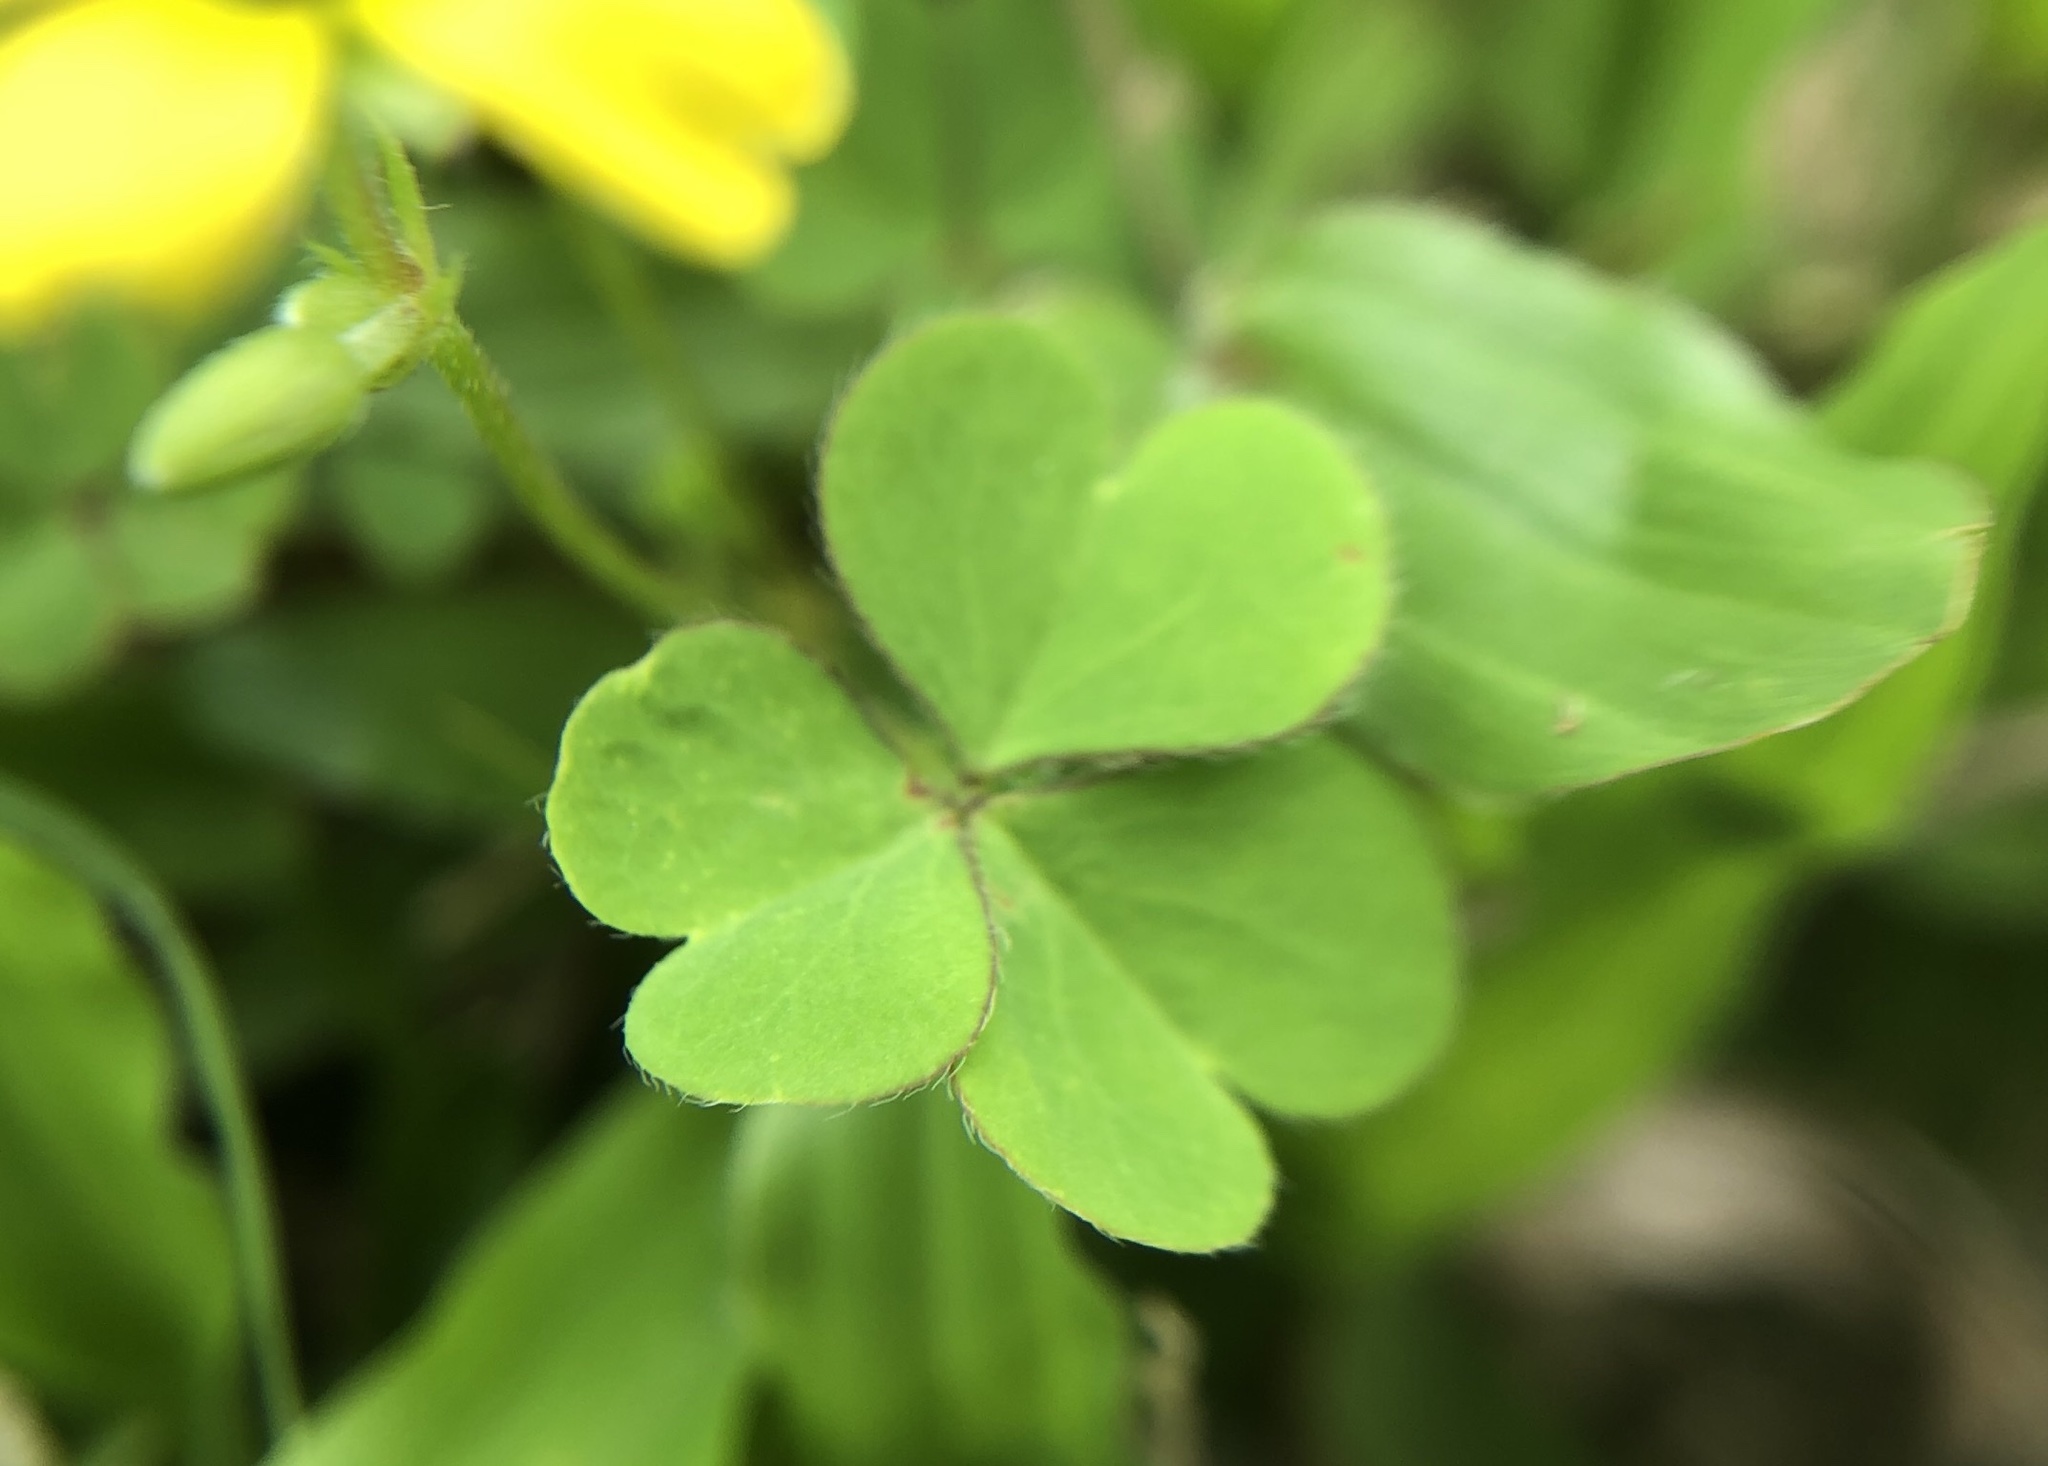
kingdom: Plantae
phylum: Tracheophyta
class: Magnoliopsida
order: Oxalidales
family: Oxalidaceae
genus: Oxalis
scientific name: Oxalis corniculata
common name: Procumbent yellow-sorrel
